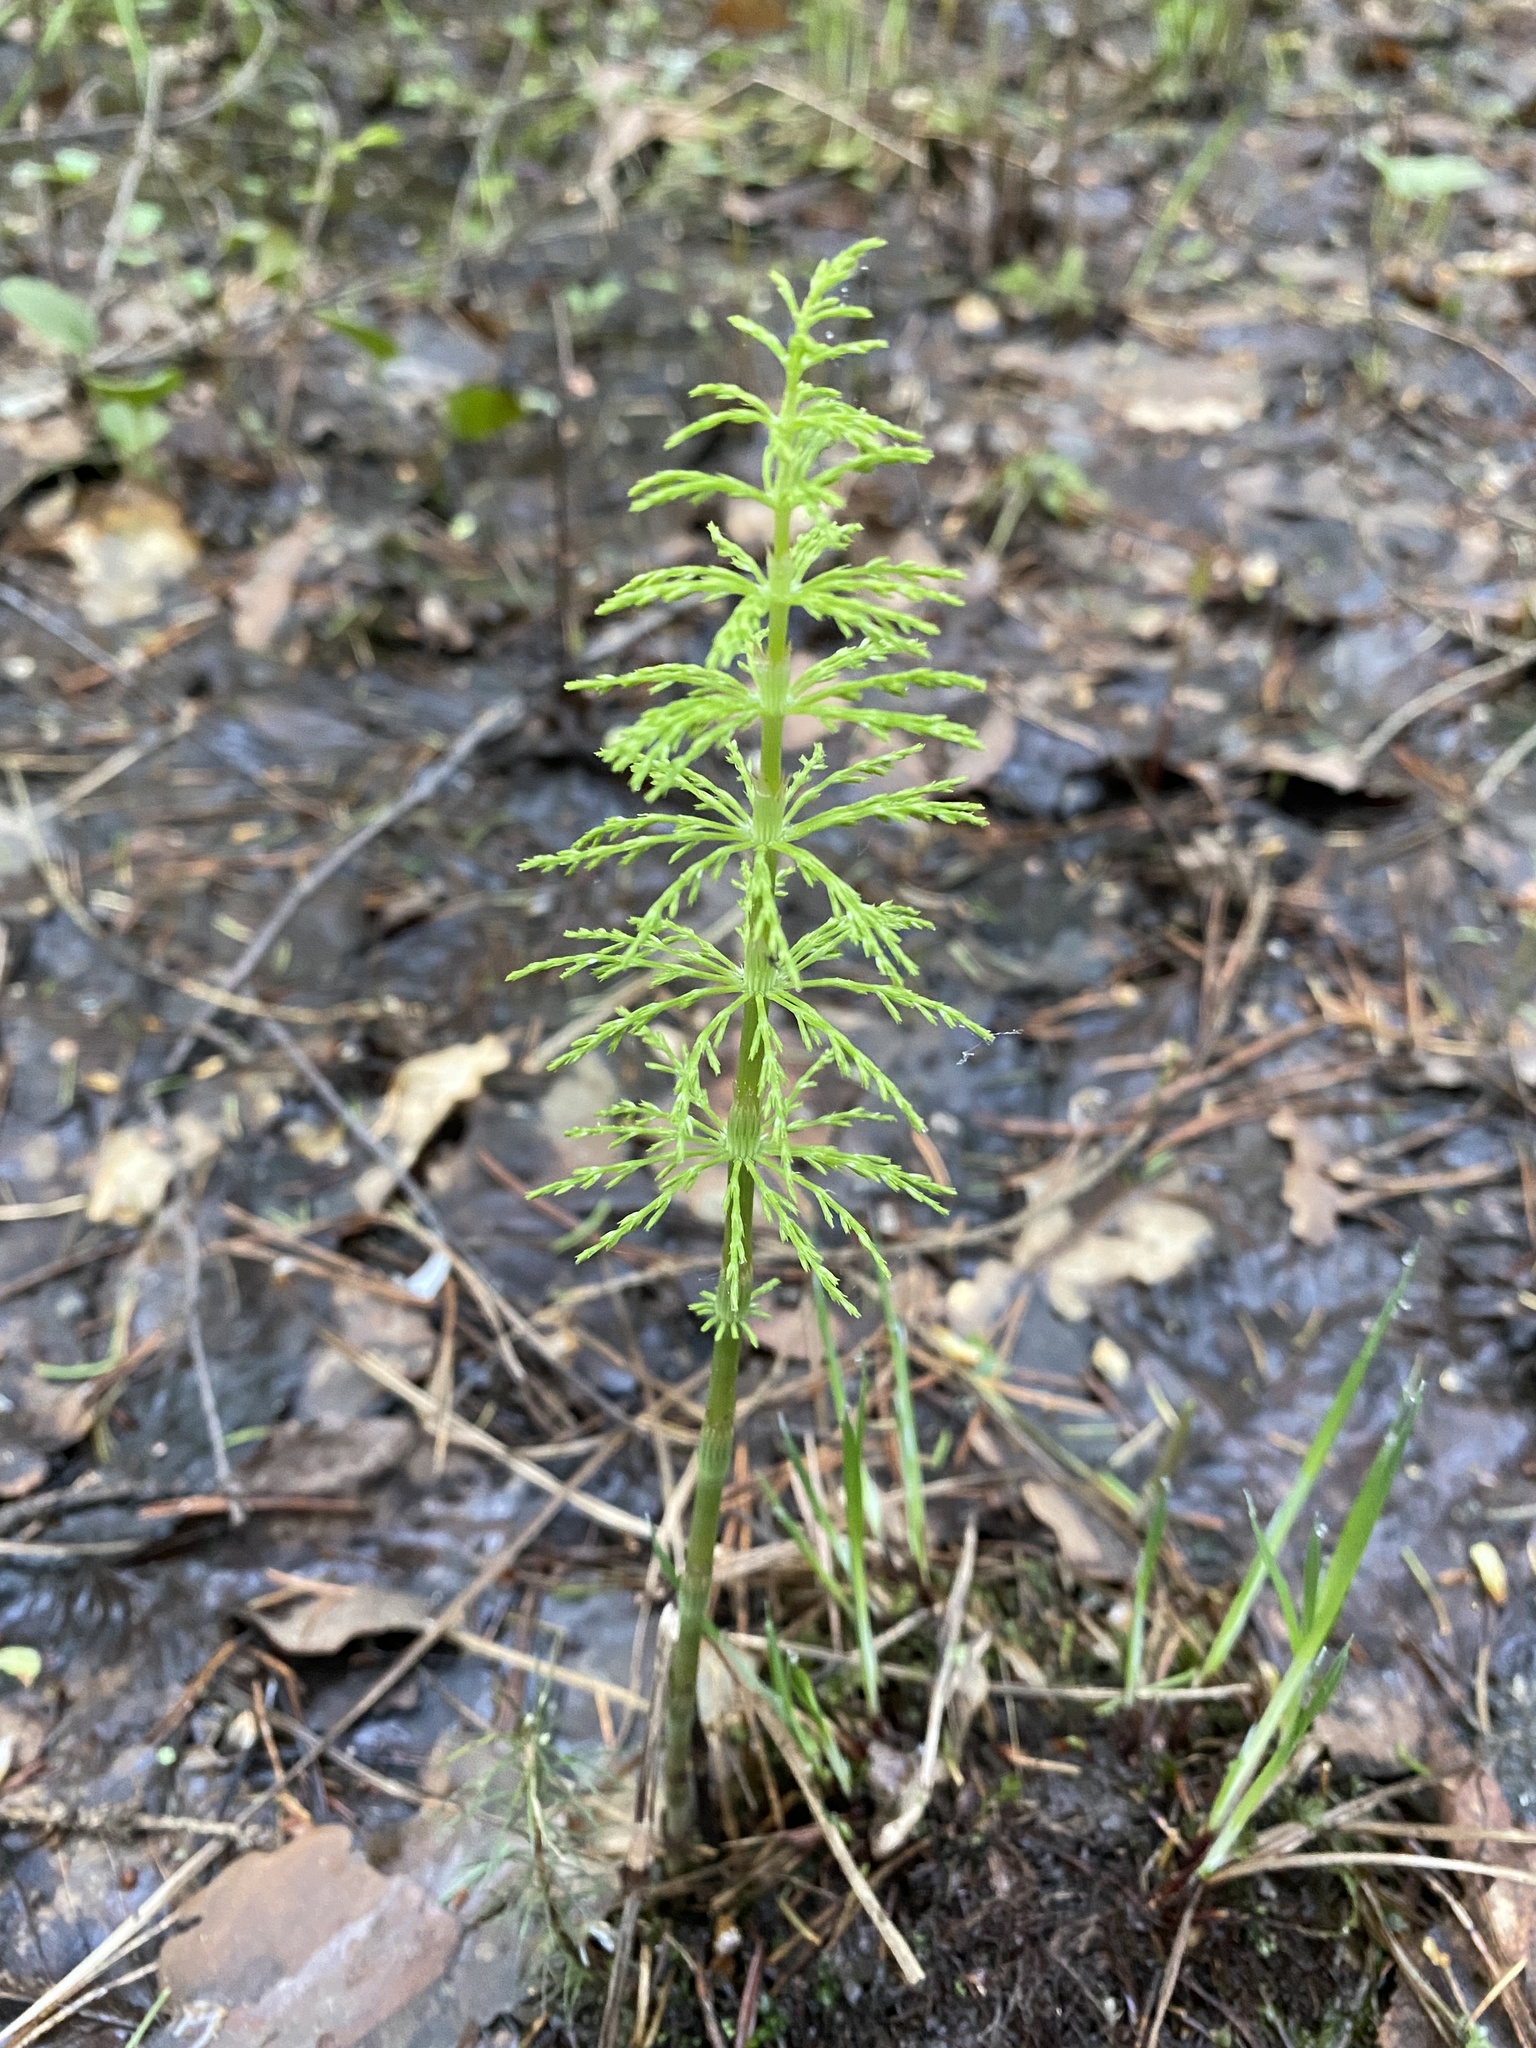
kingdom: Plantae
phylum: Tracheophyta
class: Polypodiopsida
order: Equisetales
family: Equisetaceae
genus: Equisetum
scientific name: Equisetum sylvaticum
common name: Wood horsetail
